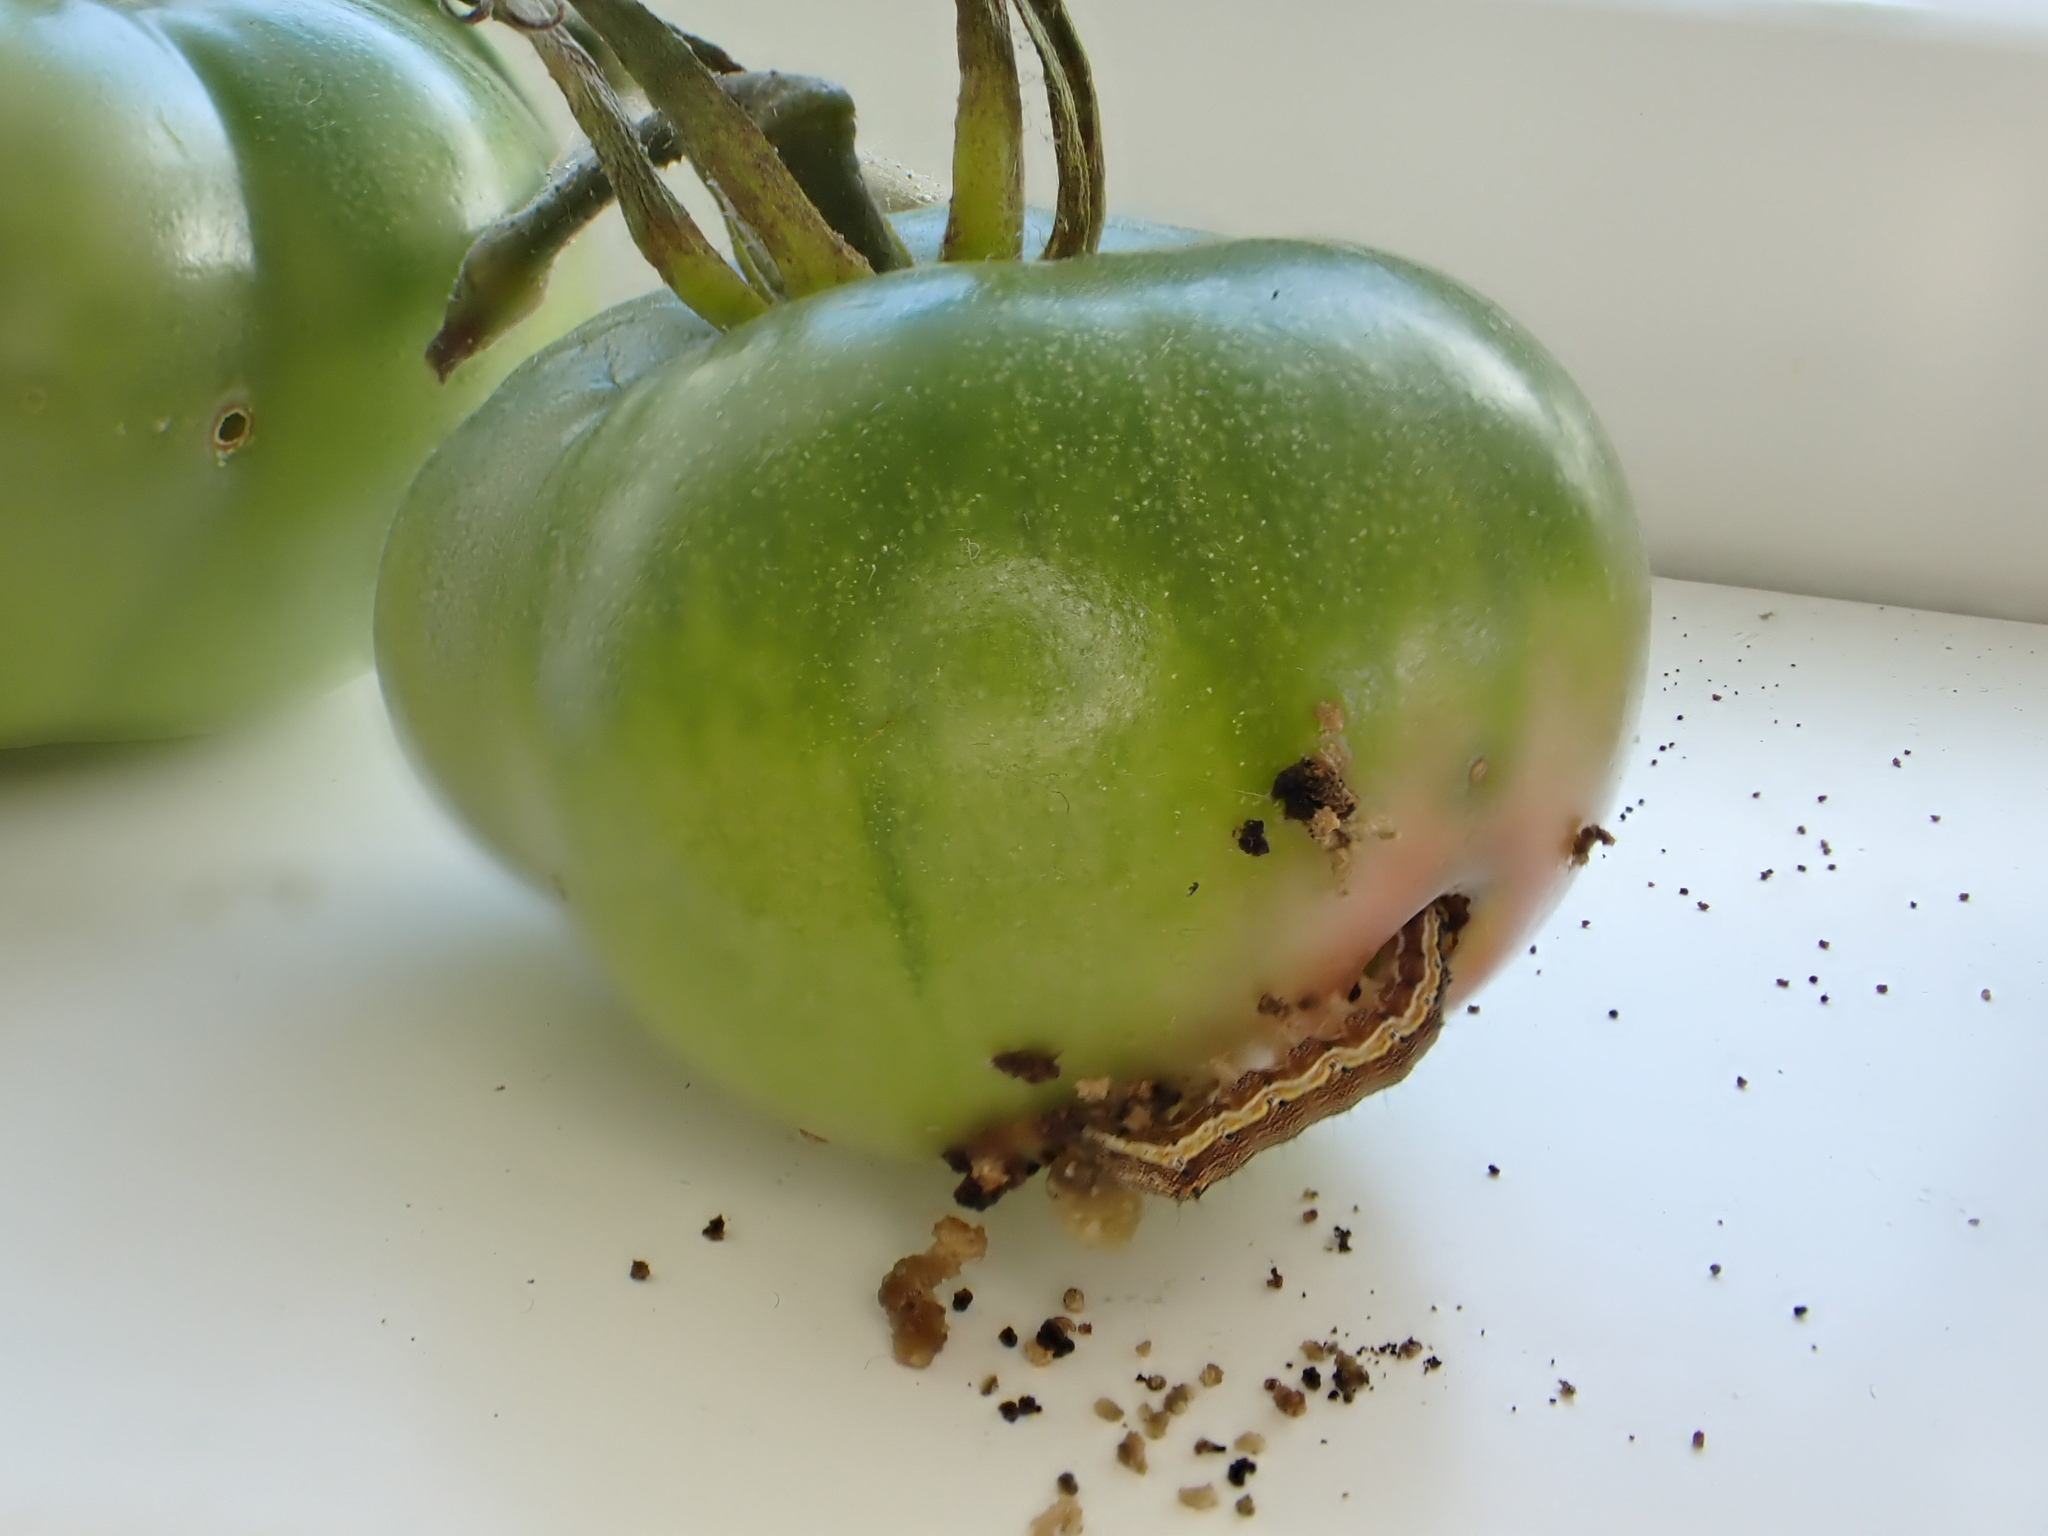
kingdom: Animalia
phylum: Arthropoda
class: Insecta
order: Lepidoptera
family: Noctuidae
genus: Helicoverpa
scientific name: Helicoverpa armigera
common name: Cotton bollworm
